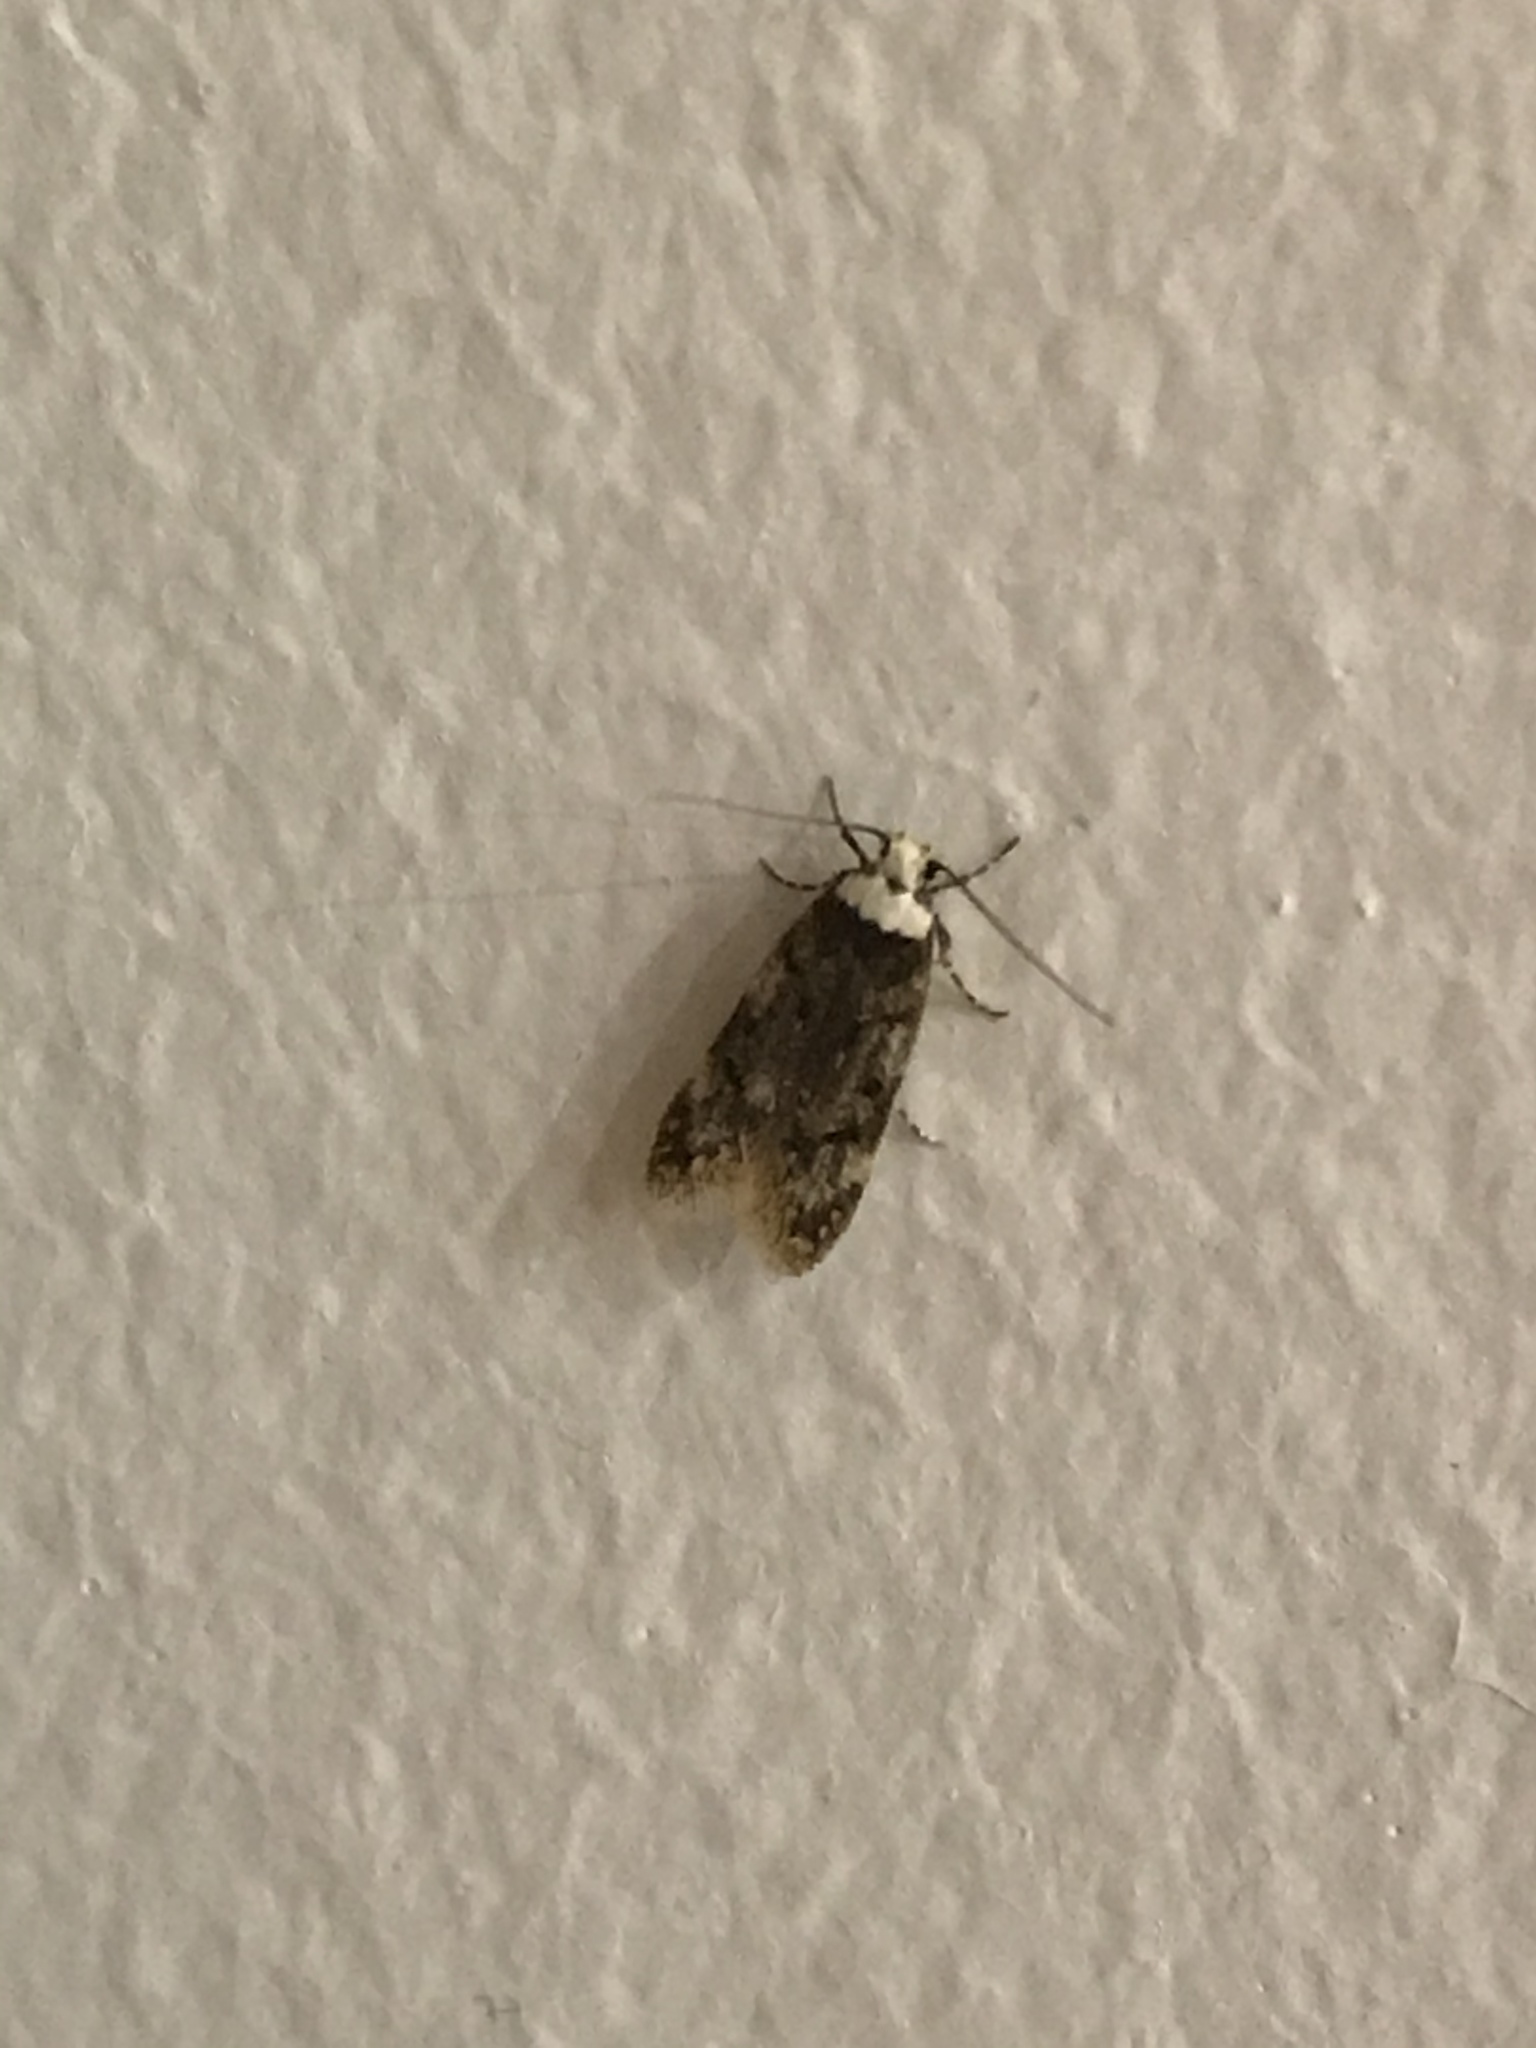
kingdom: Animalia
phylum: Arthropoda
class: Insecta
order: Lepidoptera
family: Oecophoridae
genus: Endrosis
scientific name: Endrosis sarcitrella
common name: White-shouldered house moth
